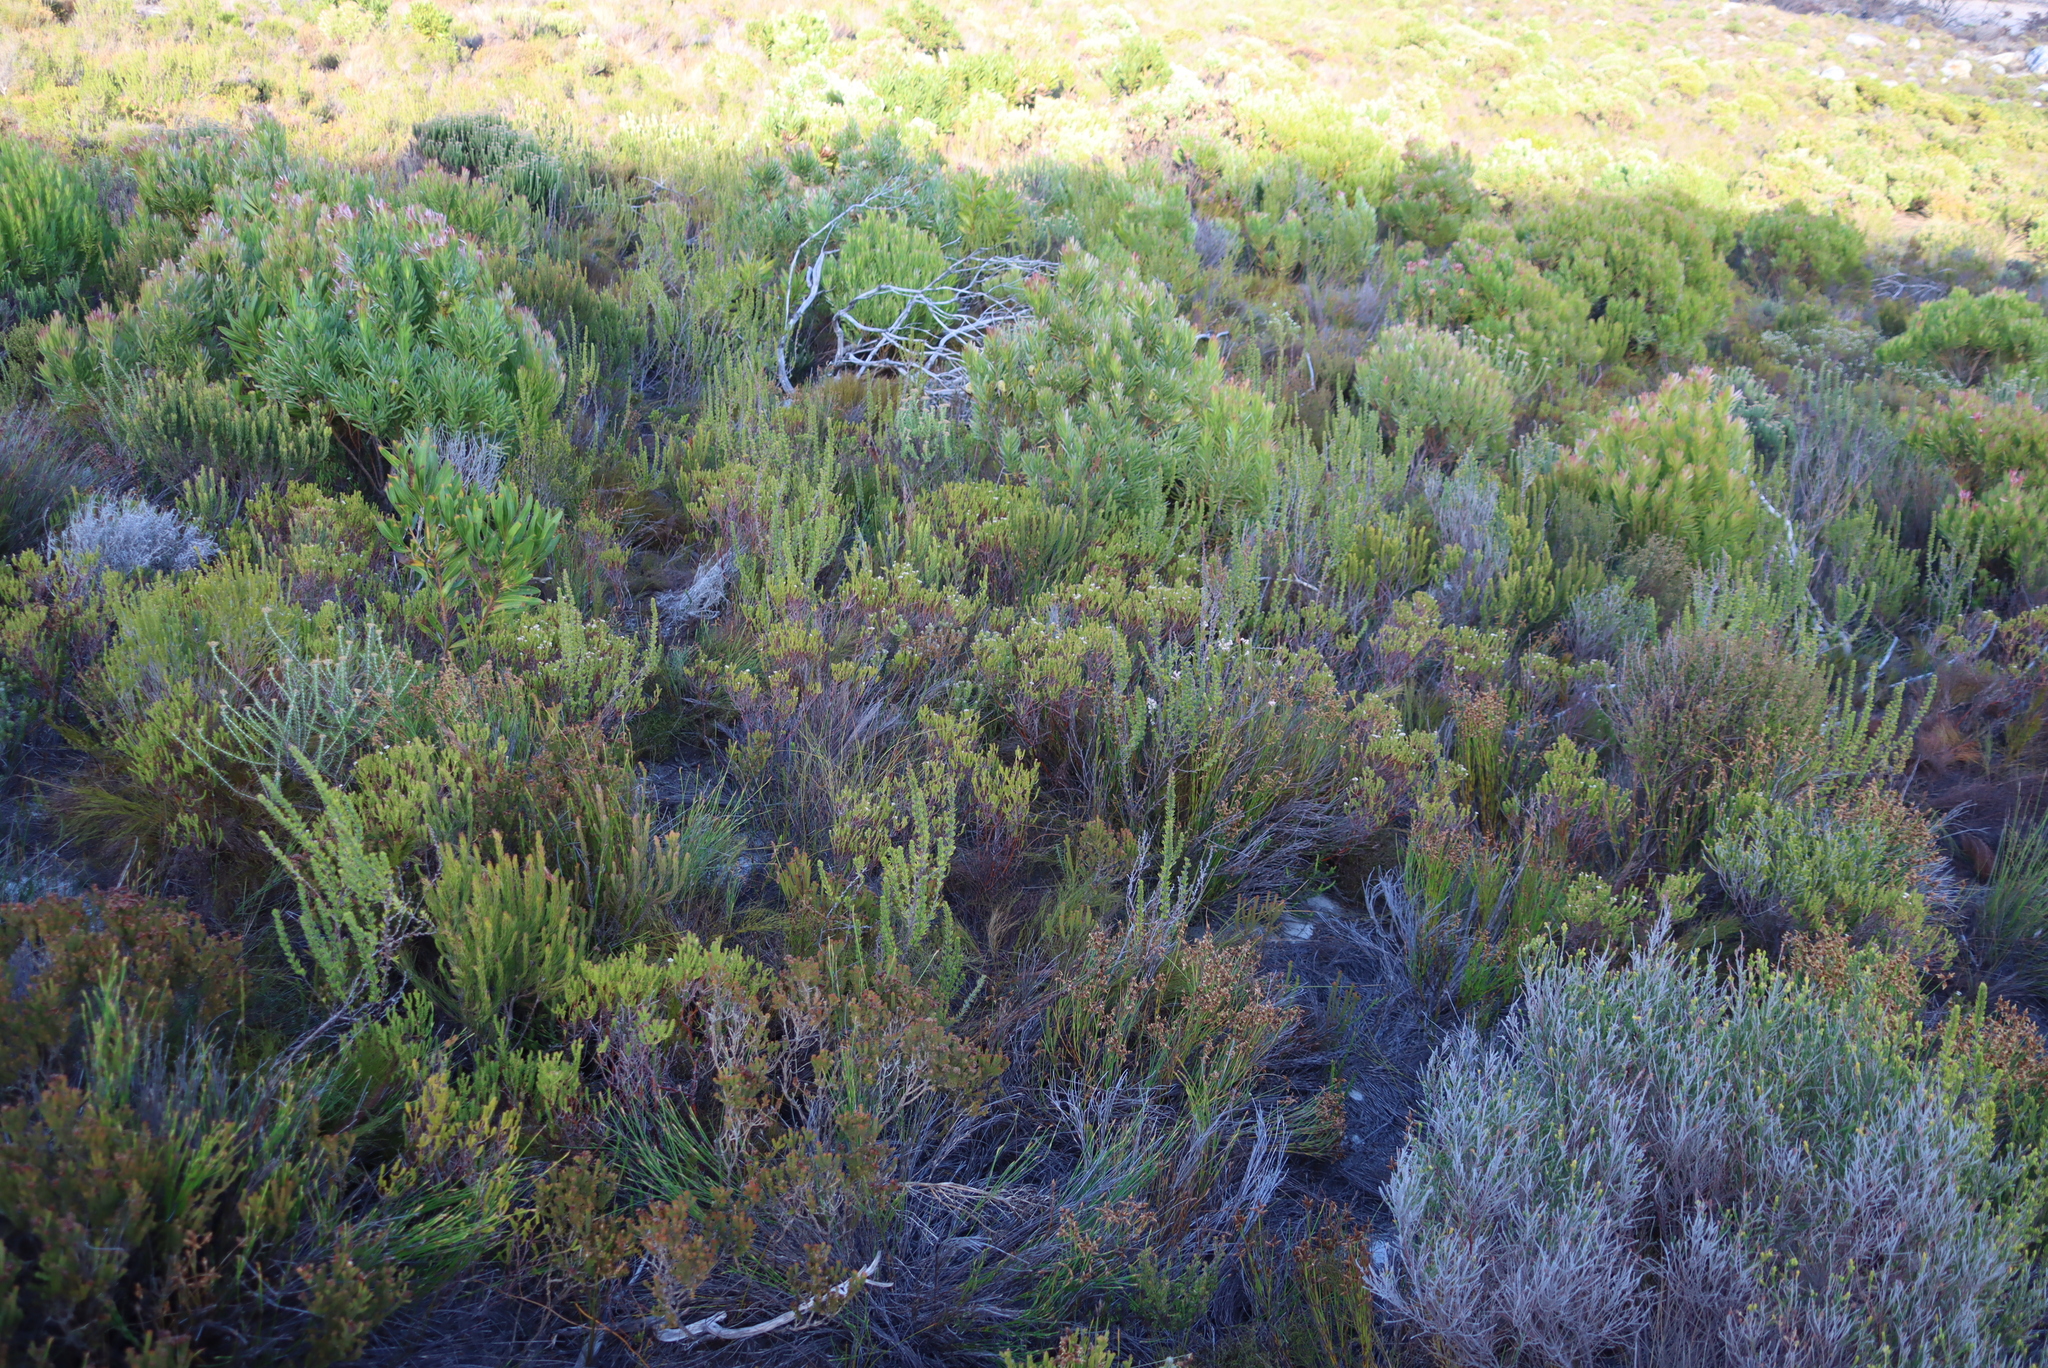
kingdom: Plantae
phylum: Tracheophyta
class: Magnoliopsida
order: Sapindales
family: Rutaceae
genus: Diosma
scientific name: Diosma hirsuta
